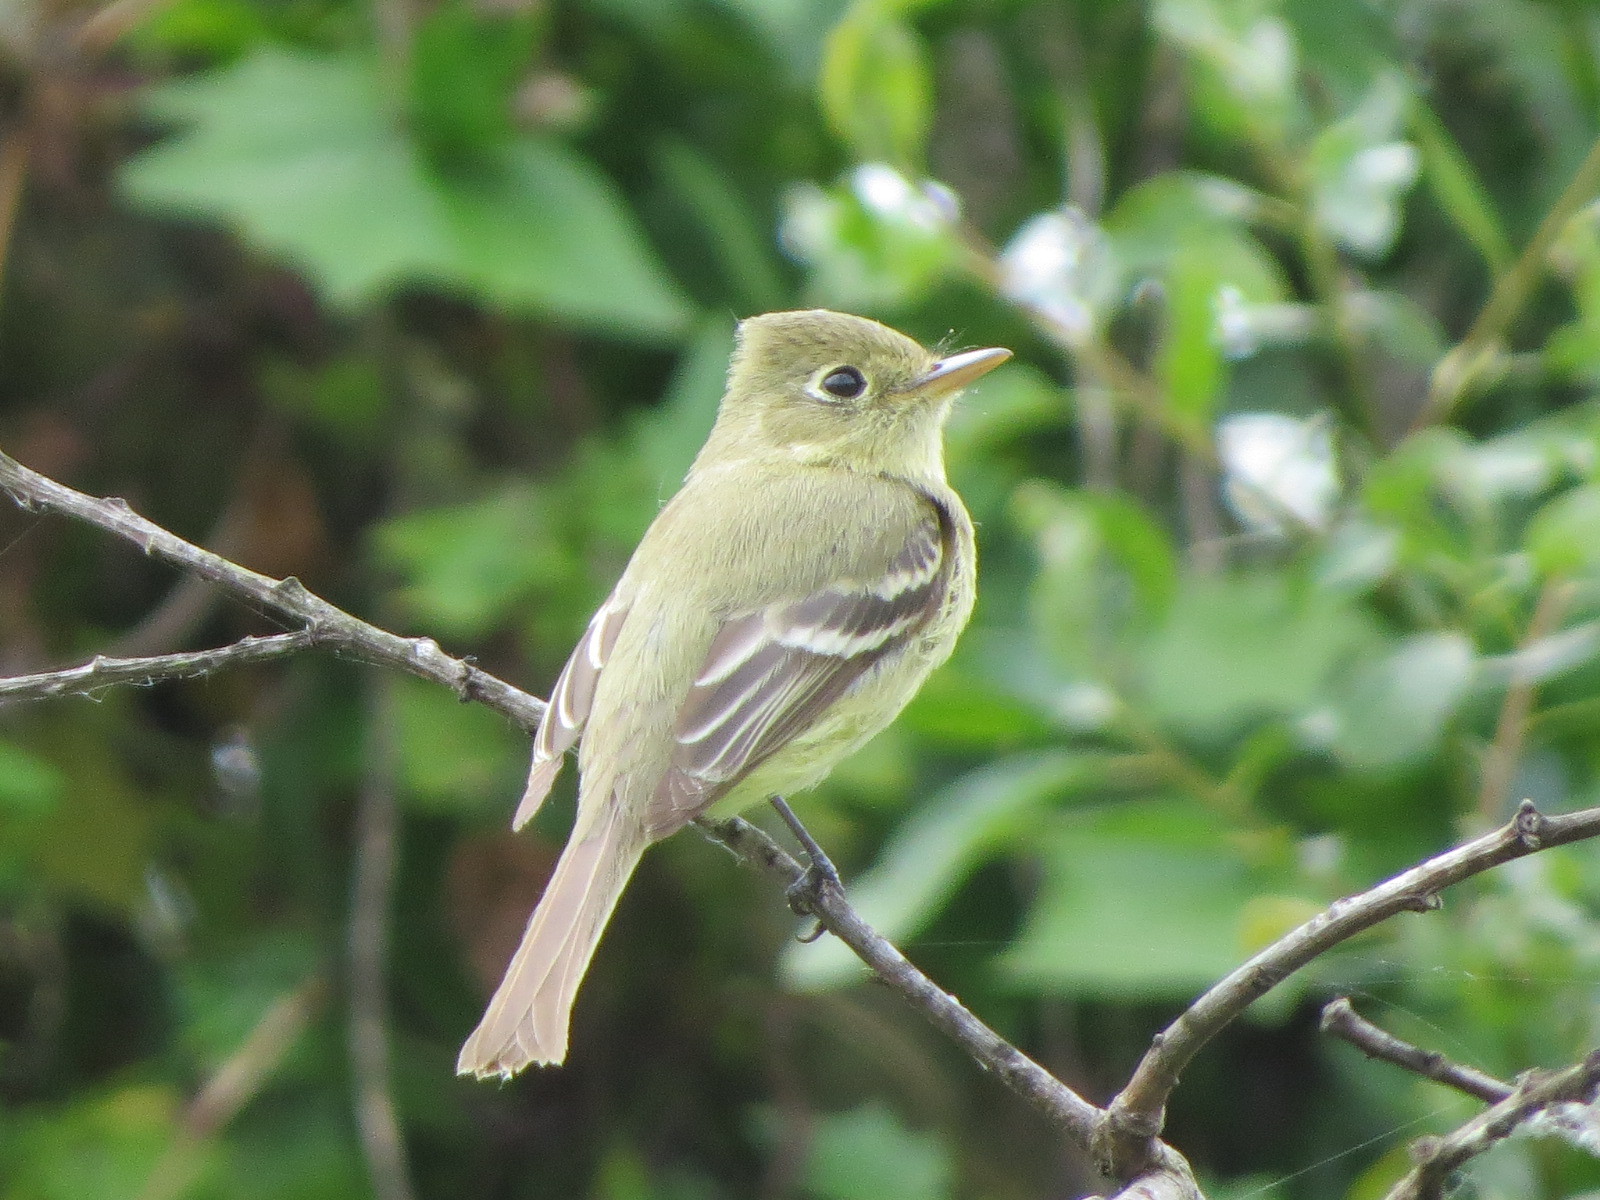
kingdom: Animalia
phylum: Chordata
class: Aves
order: Passeriformes
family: Tyrannidae
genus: Empidonax
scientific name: Empidonax difficilis
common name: Pacific-slope flycatcher
